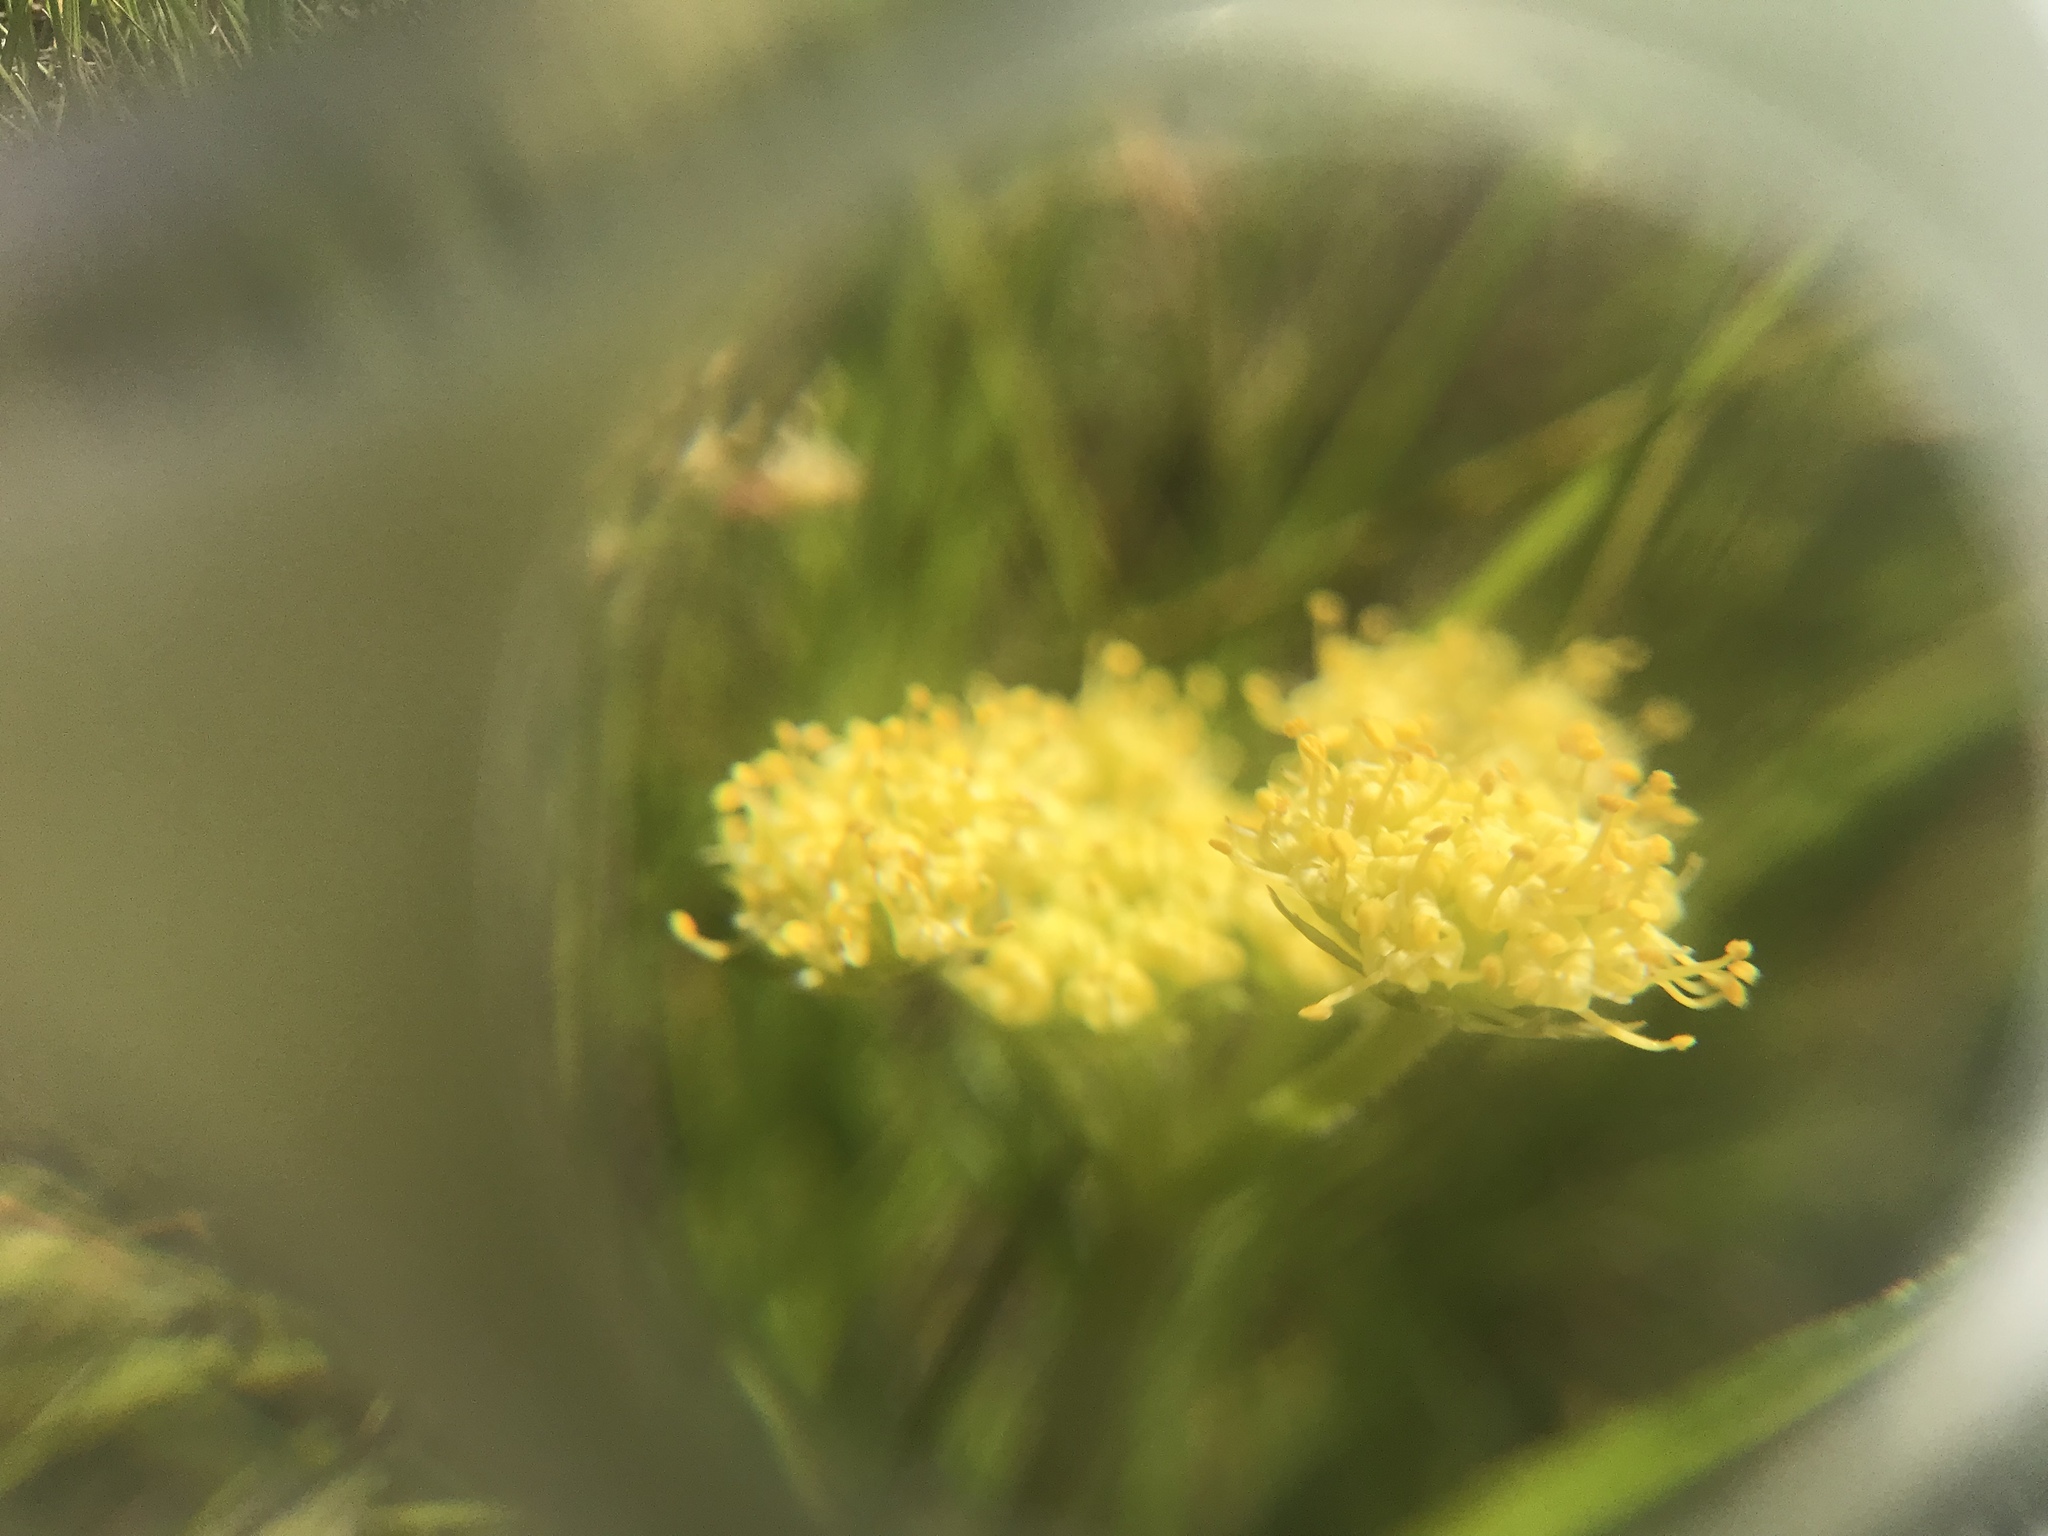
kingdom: Plantae
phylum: Tracheophyta
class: Magnoliopsida
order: Apiales
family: Apiaceae
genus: Lomatium
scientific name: Lomatium caruifolium
